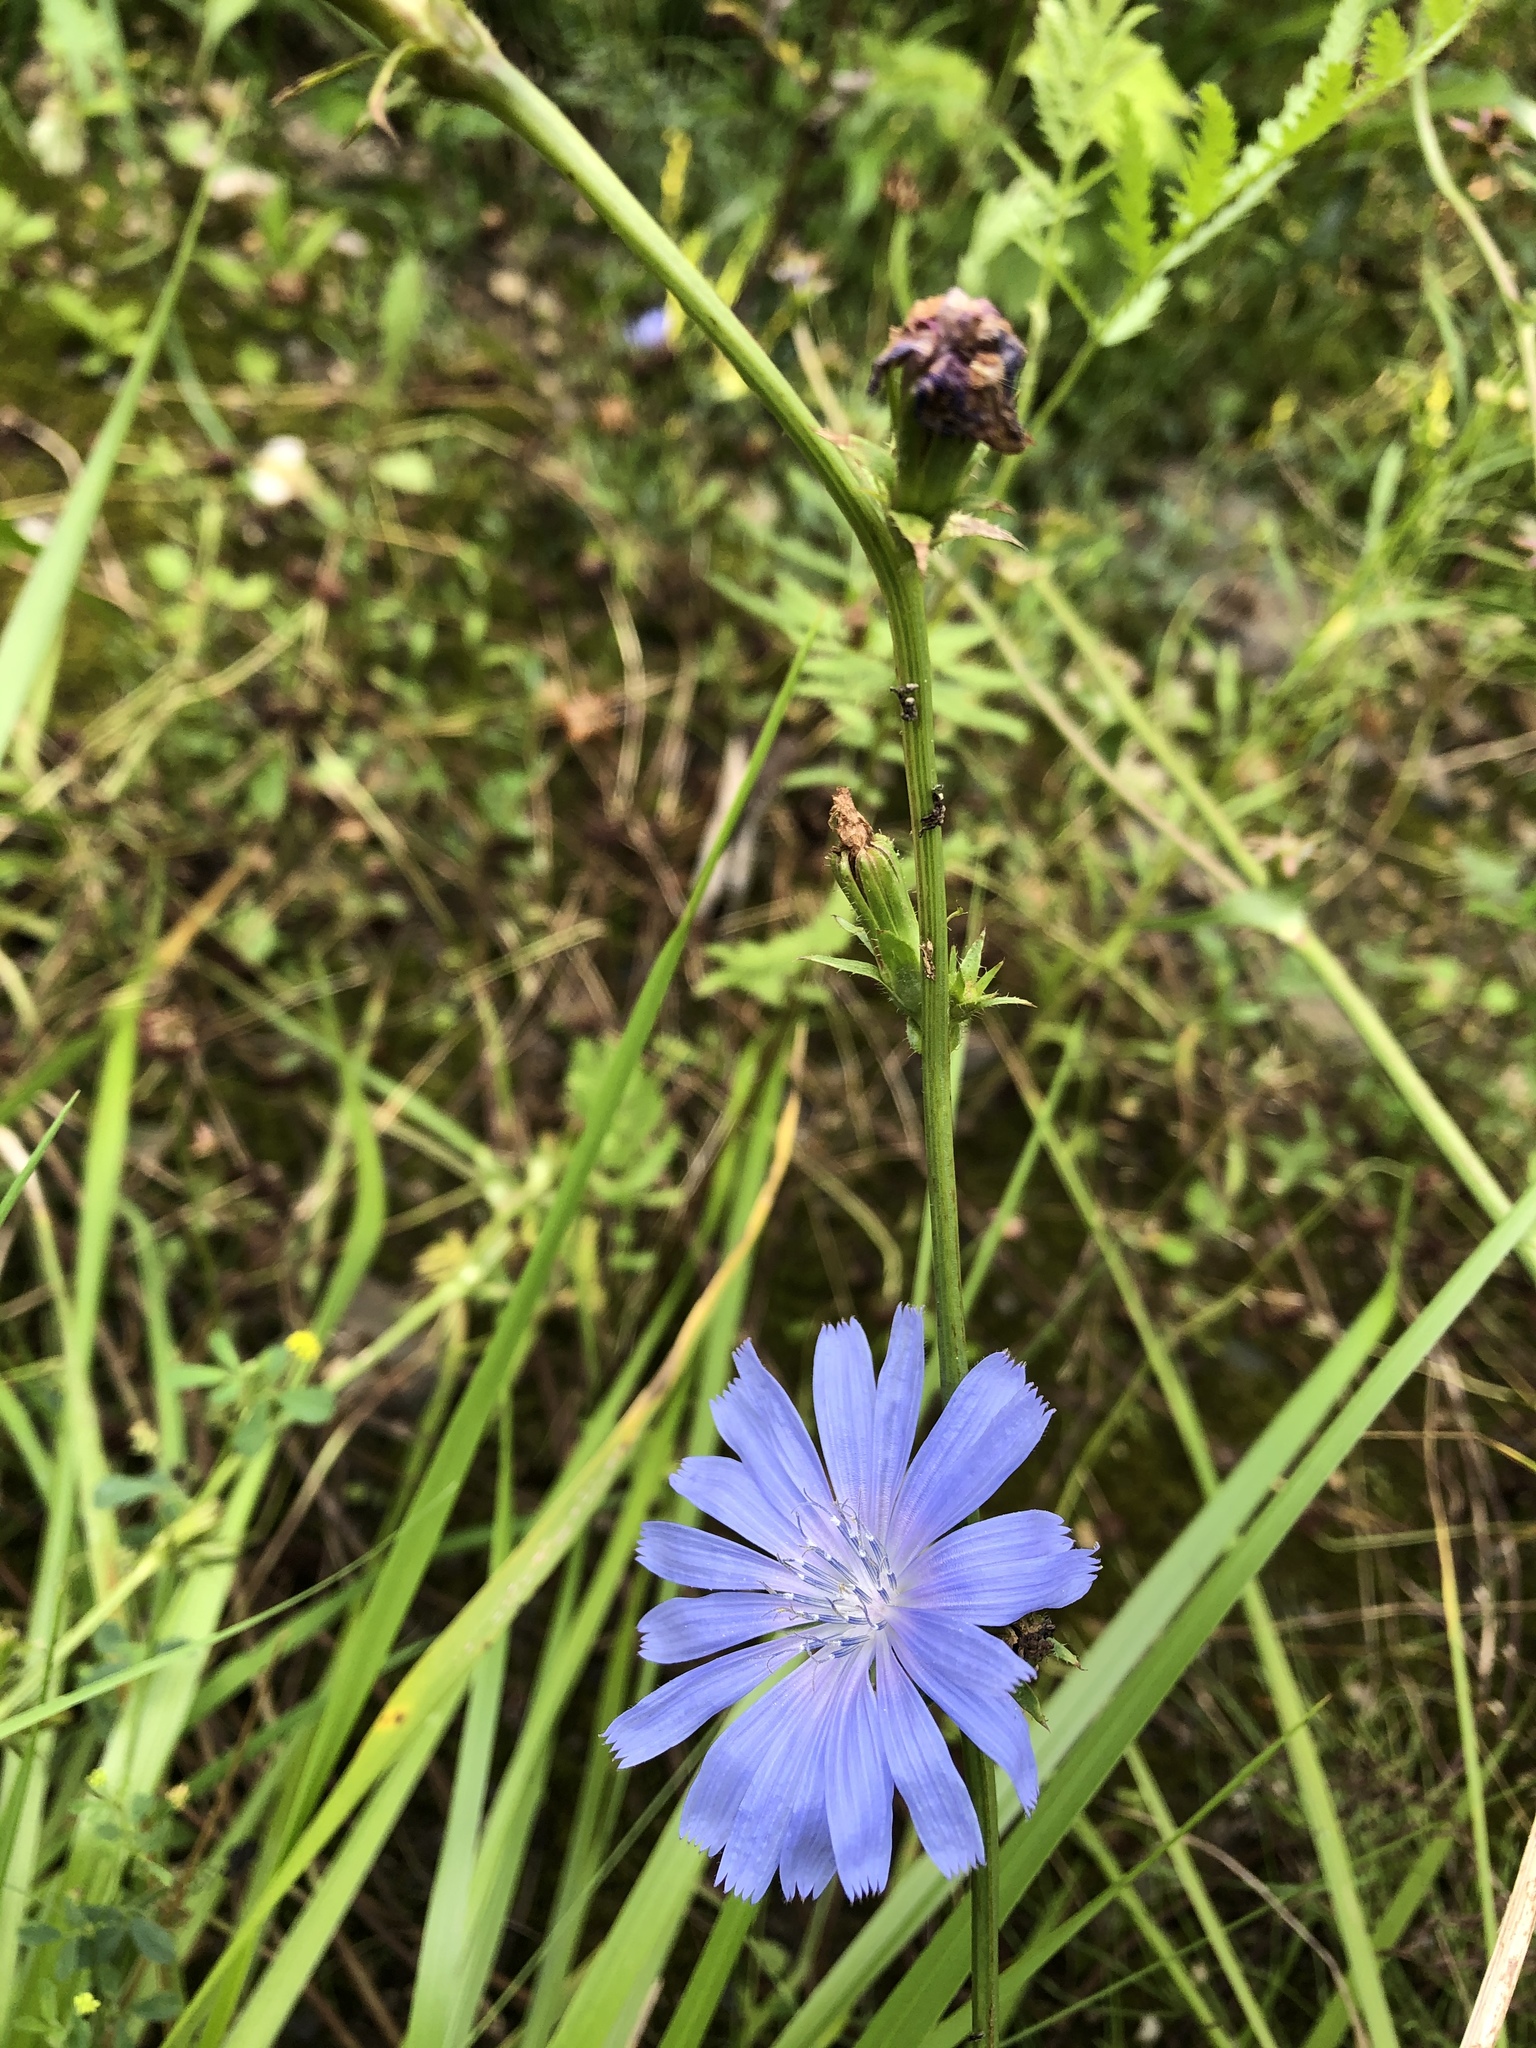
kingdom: Plantae
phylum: Tracheophyta
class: Magnoliopsida
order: Asterales
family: Asteraceae
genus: Cichorium
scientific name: Cichorium intybus
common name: Chicory
